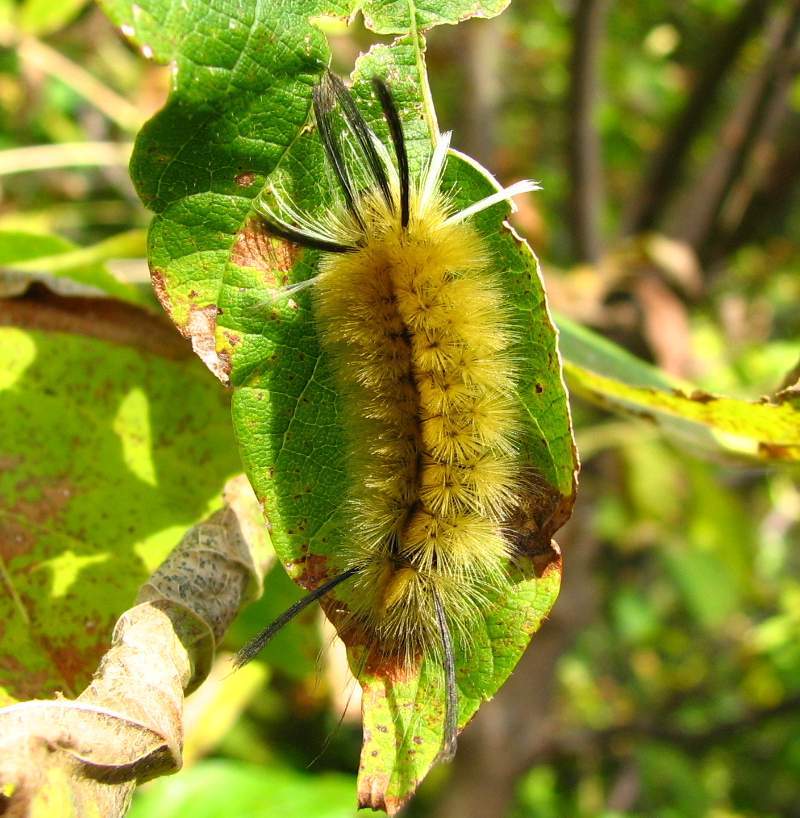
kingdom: Animalia
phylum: Arthropoda
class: Insecta
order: Lepidoptera
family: Erebidae
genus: Halysidota
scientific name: Halysidota tessellaris
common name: Banded tussock moth
